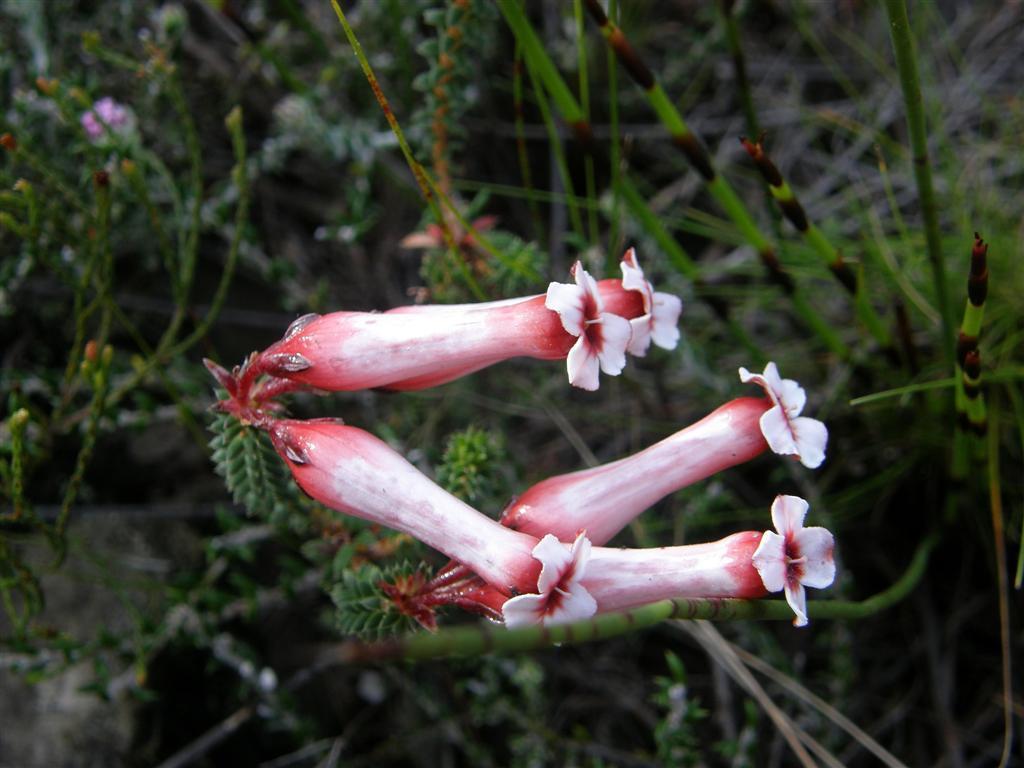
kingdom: Plantae
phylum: Tracheophyta
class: Magnoliopsida
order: Ericales
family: Ericaceae
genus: Erica
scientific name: Erica aristata
